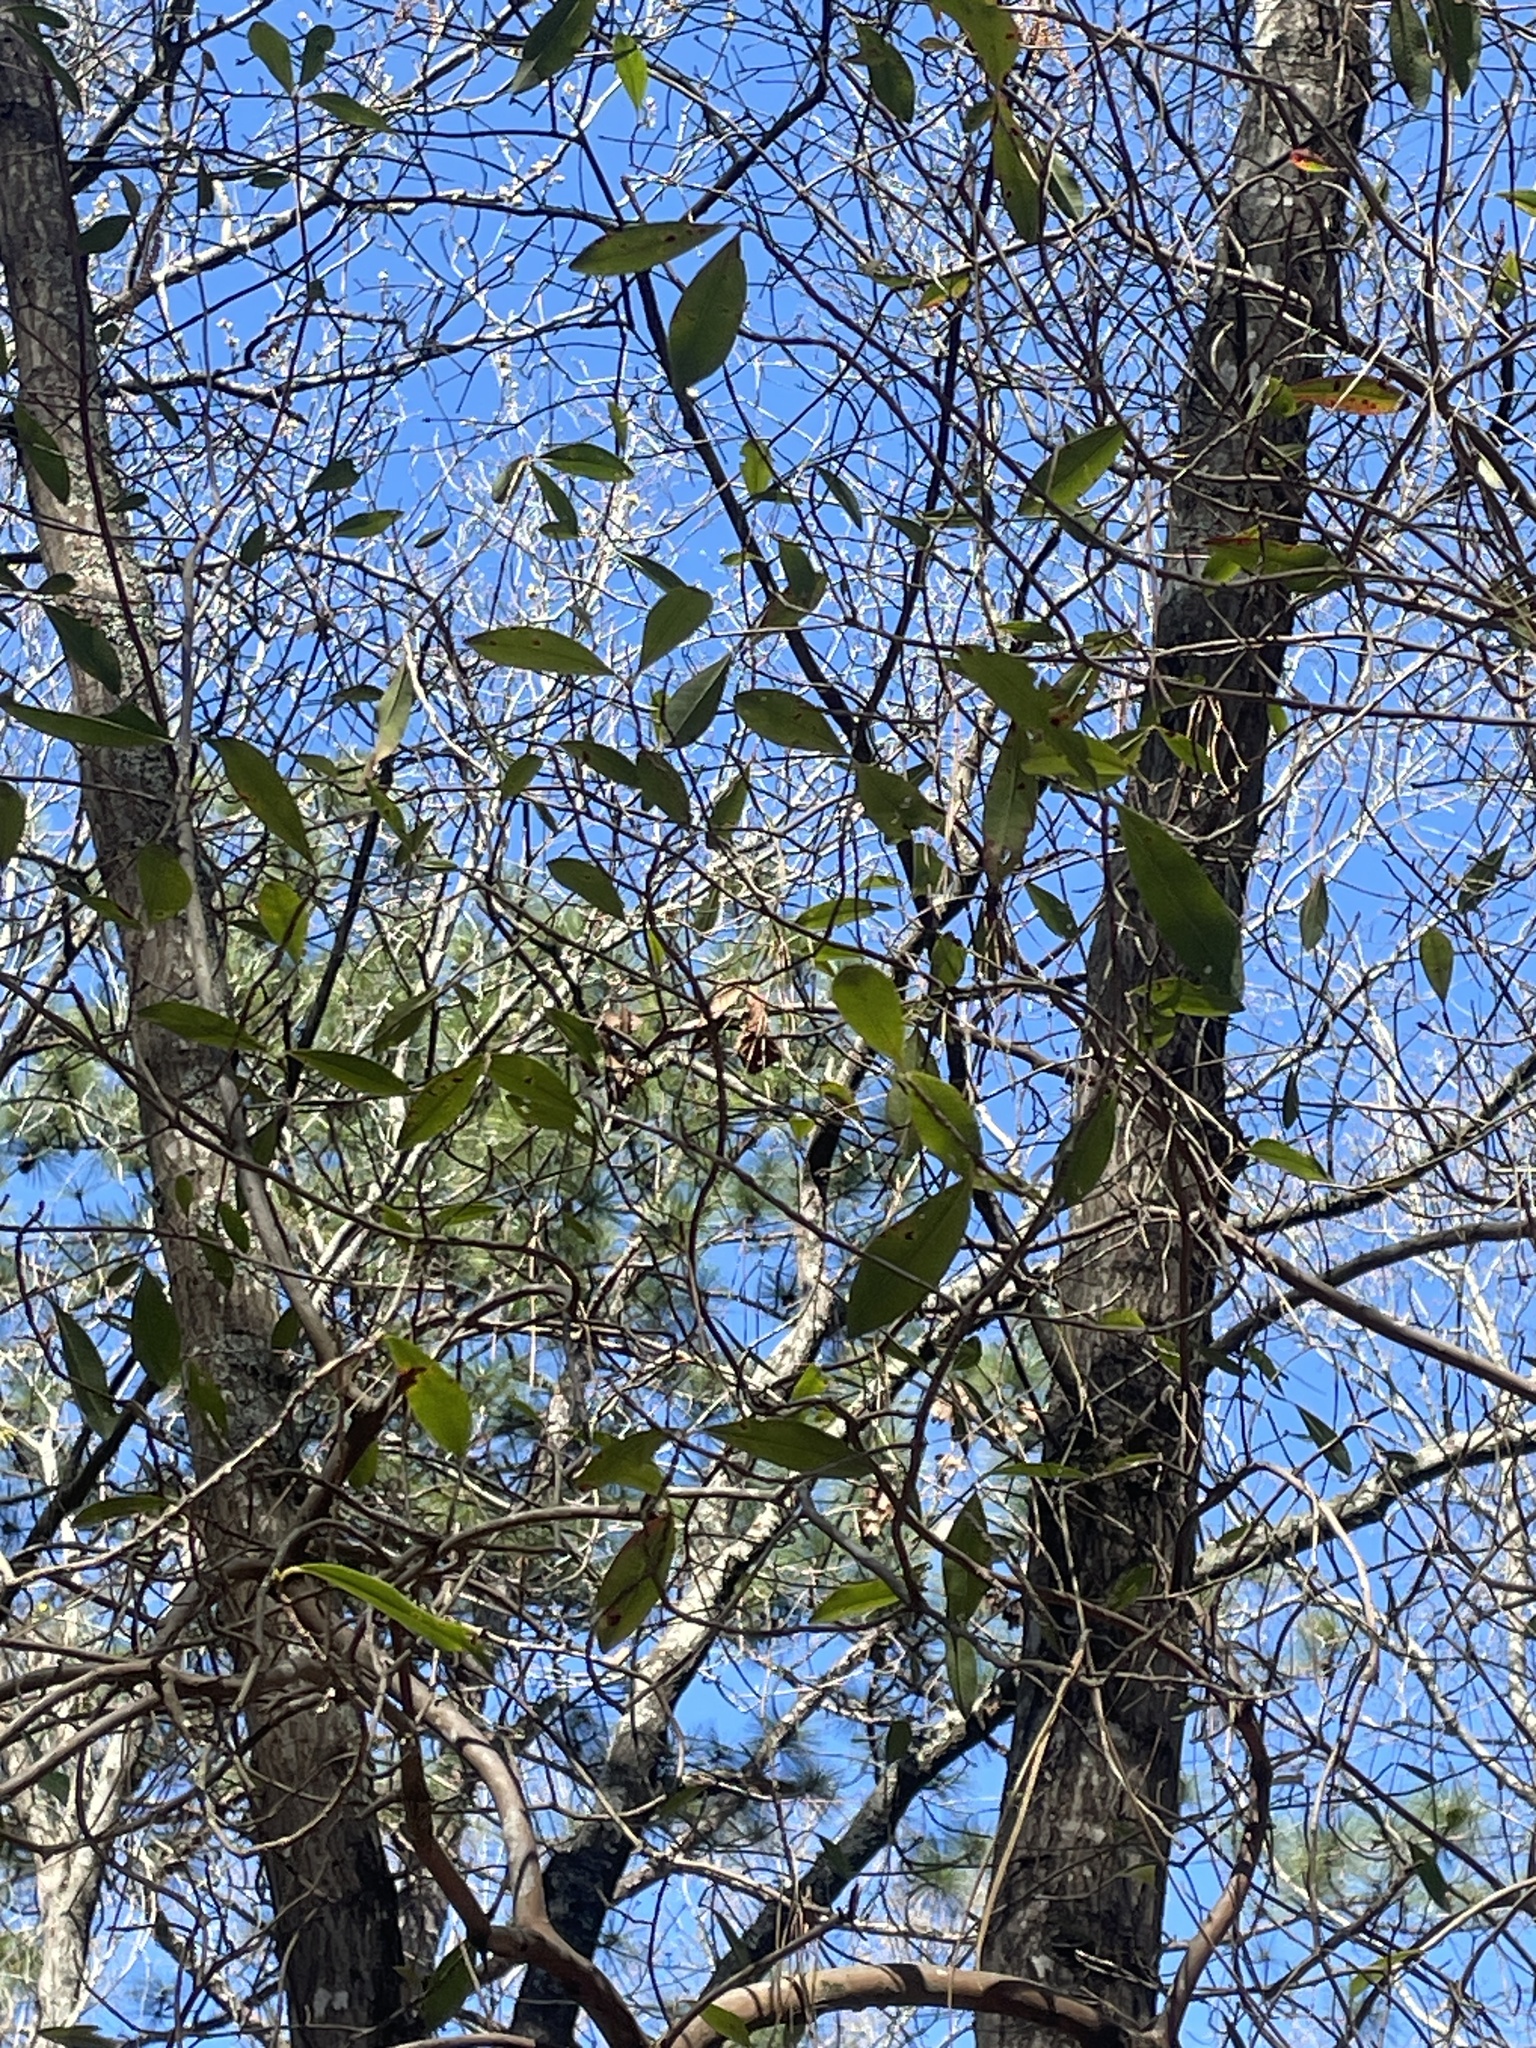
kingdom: Plantae
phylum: Tracheophyta
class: Magnoliopsida
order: Ericales
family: Cyrillaceae
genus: Cyrilla
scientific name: Cyrilla racemiflora
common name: Black titi
